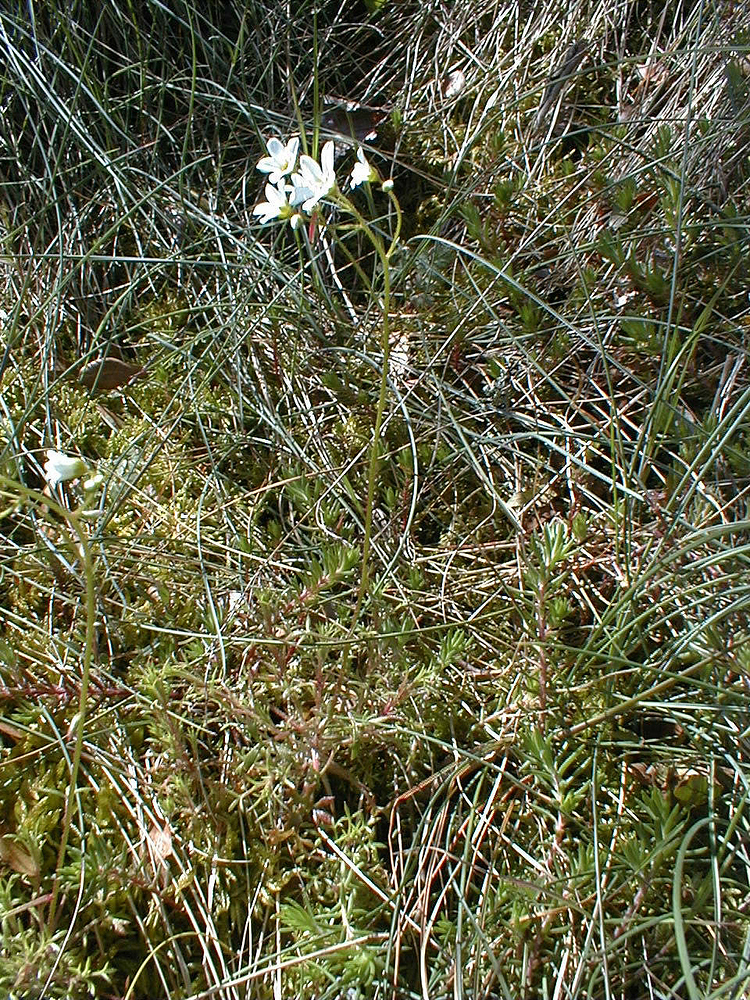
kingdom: Plantae
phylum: Tracheophyta
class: Magnoliopsida
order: Saxifragales
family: Saxifragaceae
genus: Saxifraga
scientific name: Saxifraga fragosoi
